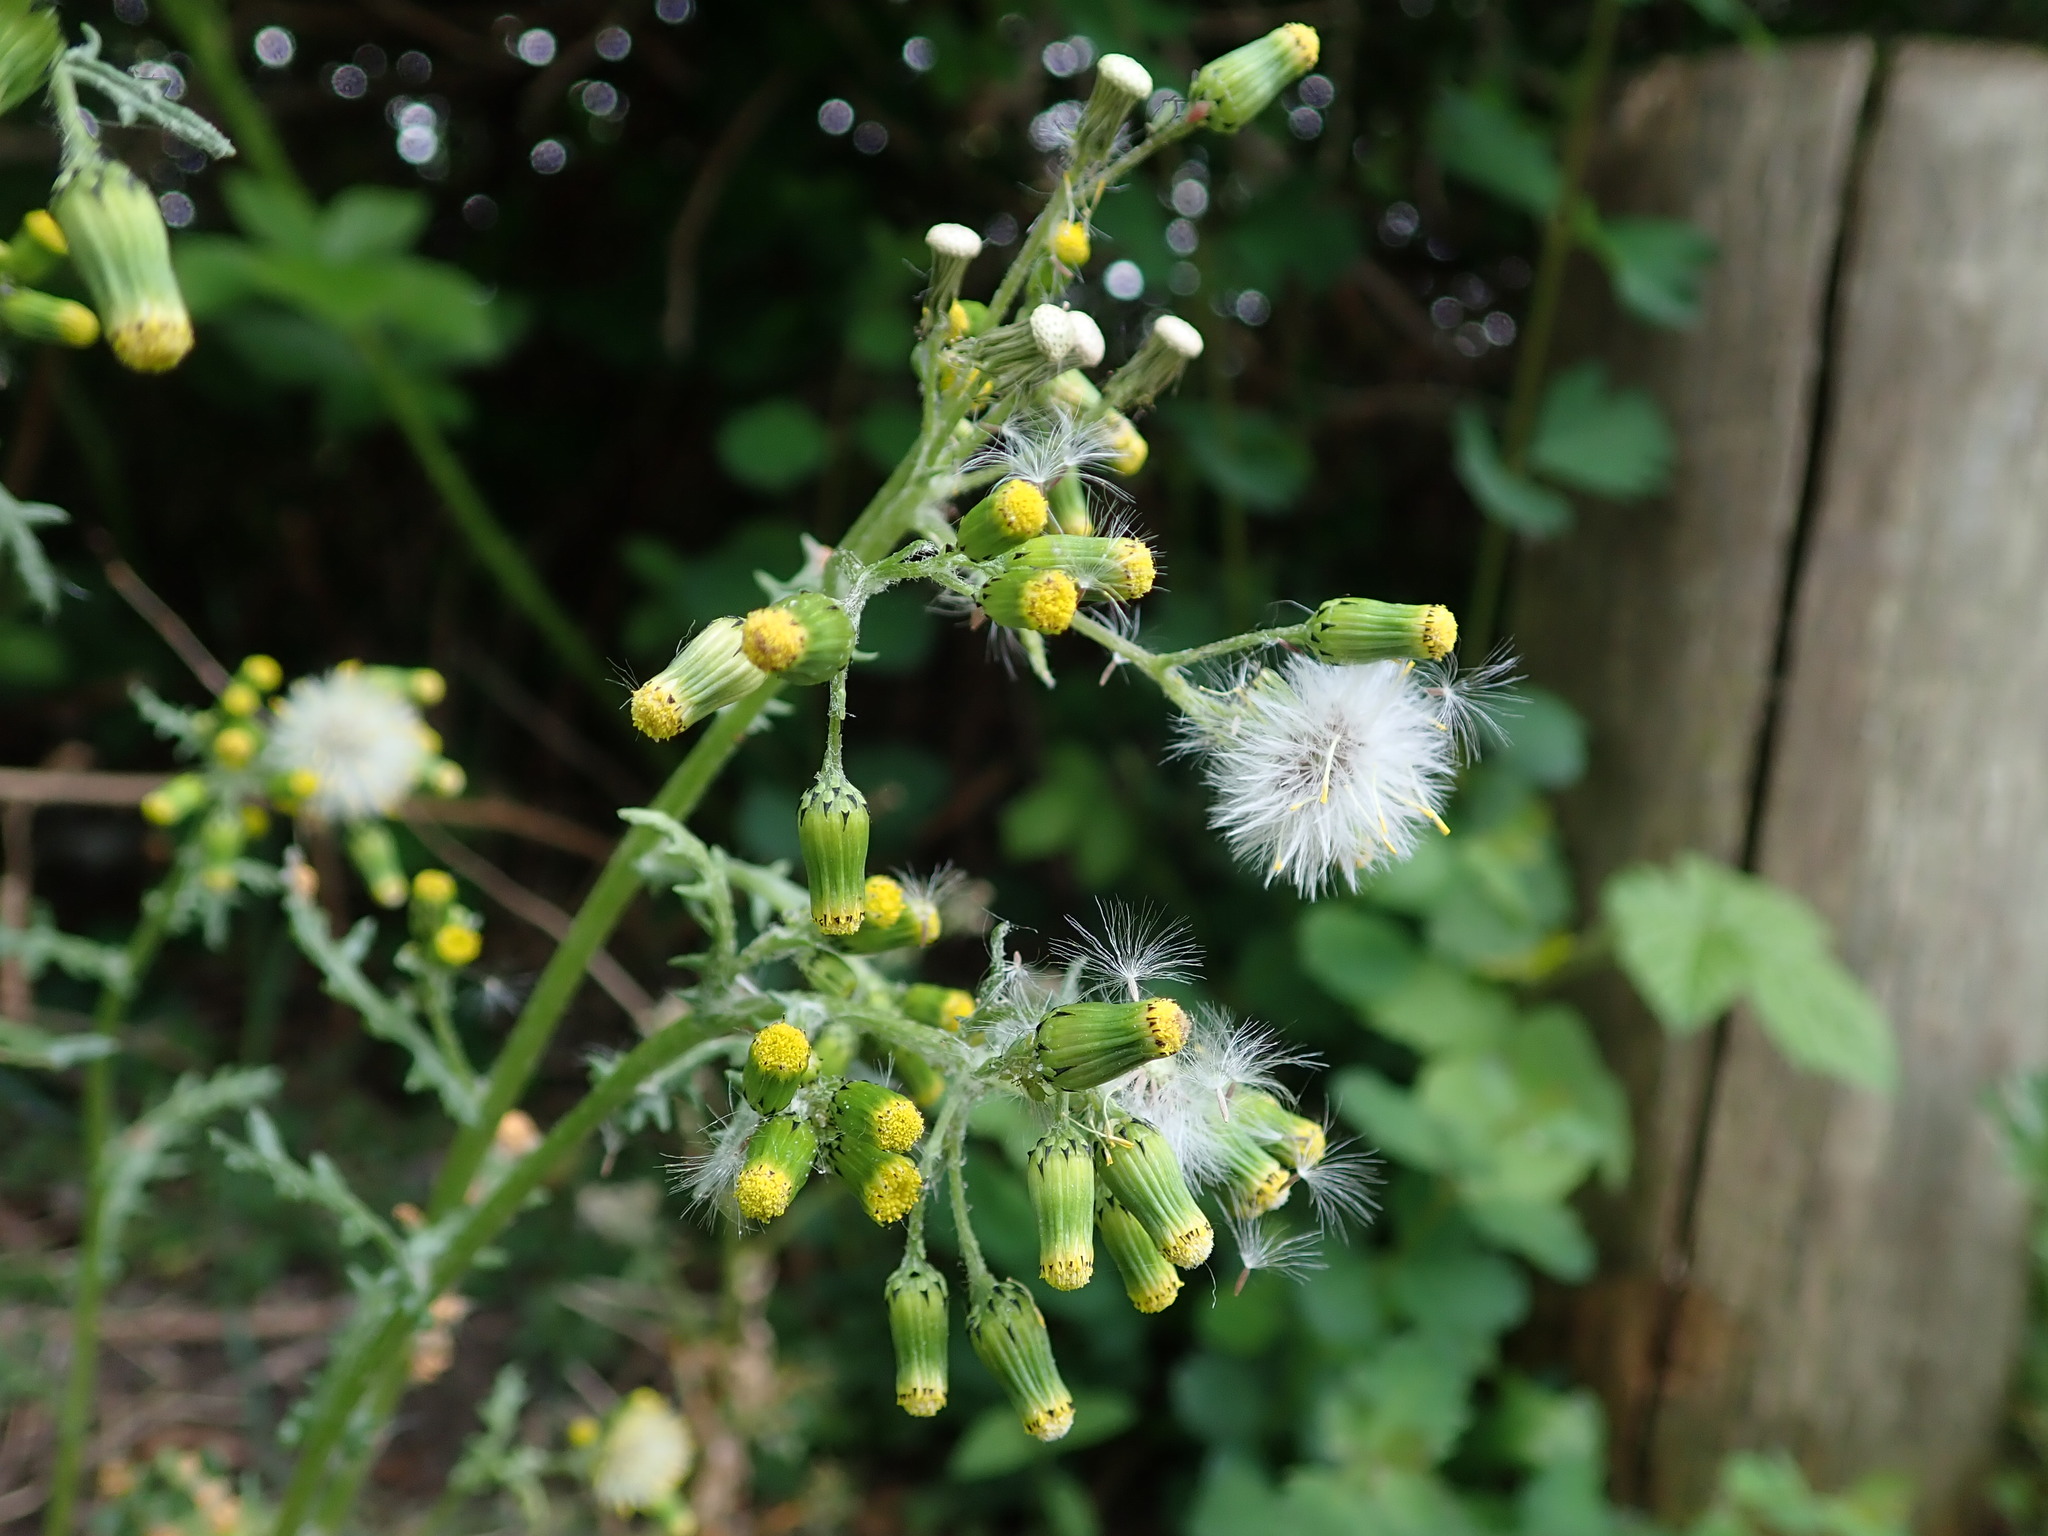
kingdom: Plantae
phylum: Tracheophyta
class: Magnoliopsida
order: Asterales
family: Asteraceae
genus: Senecio
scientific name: Senecio vulgaris
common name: Old-man-in-the-spring
